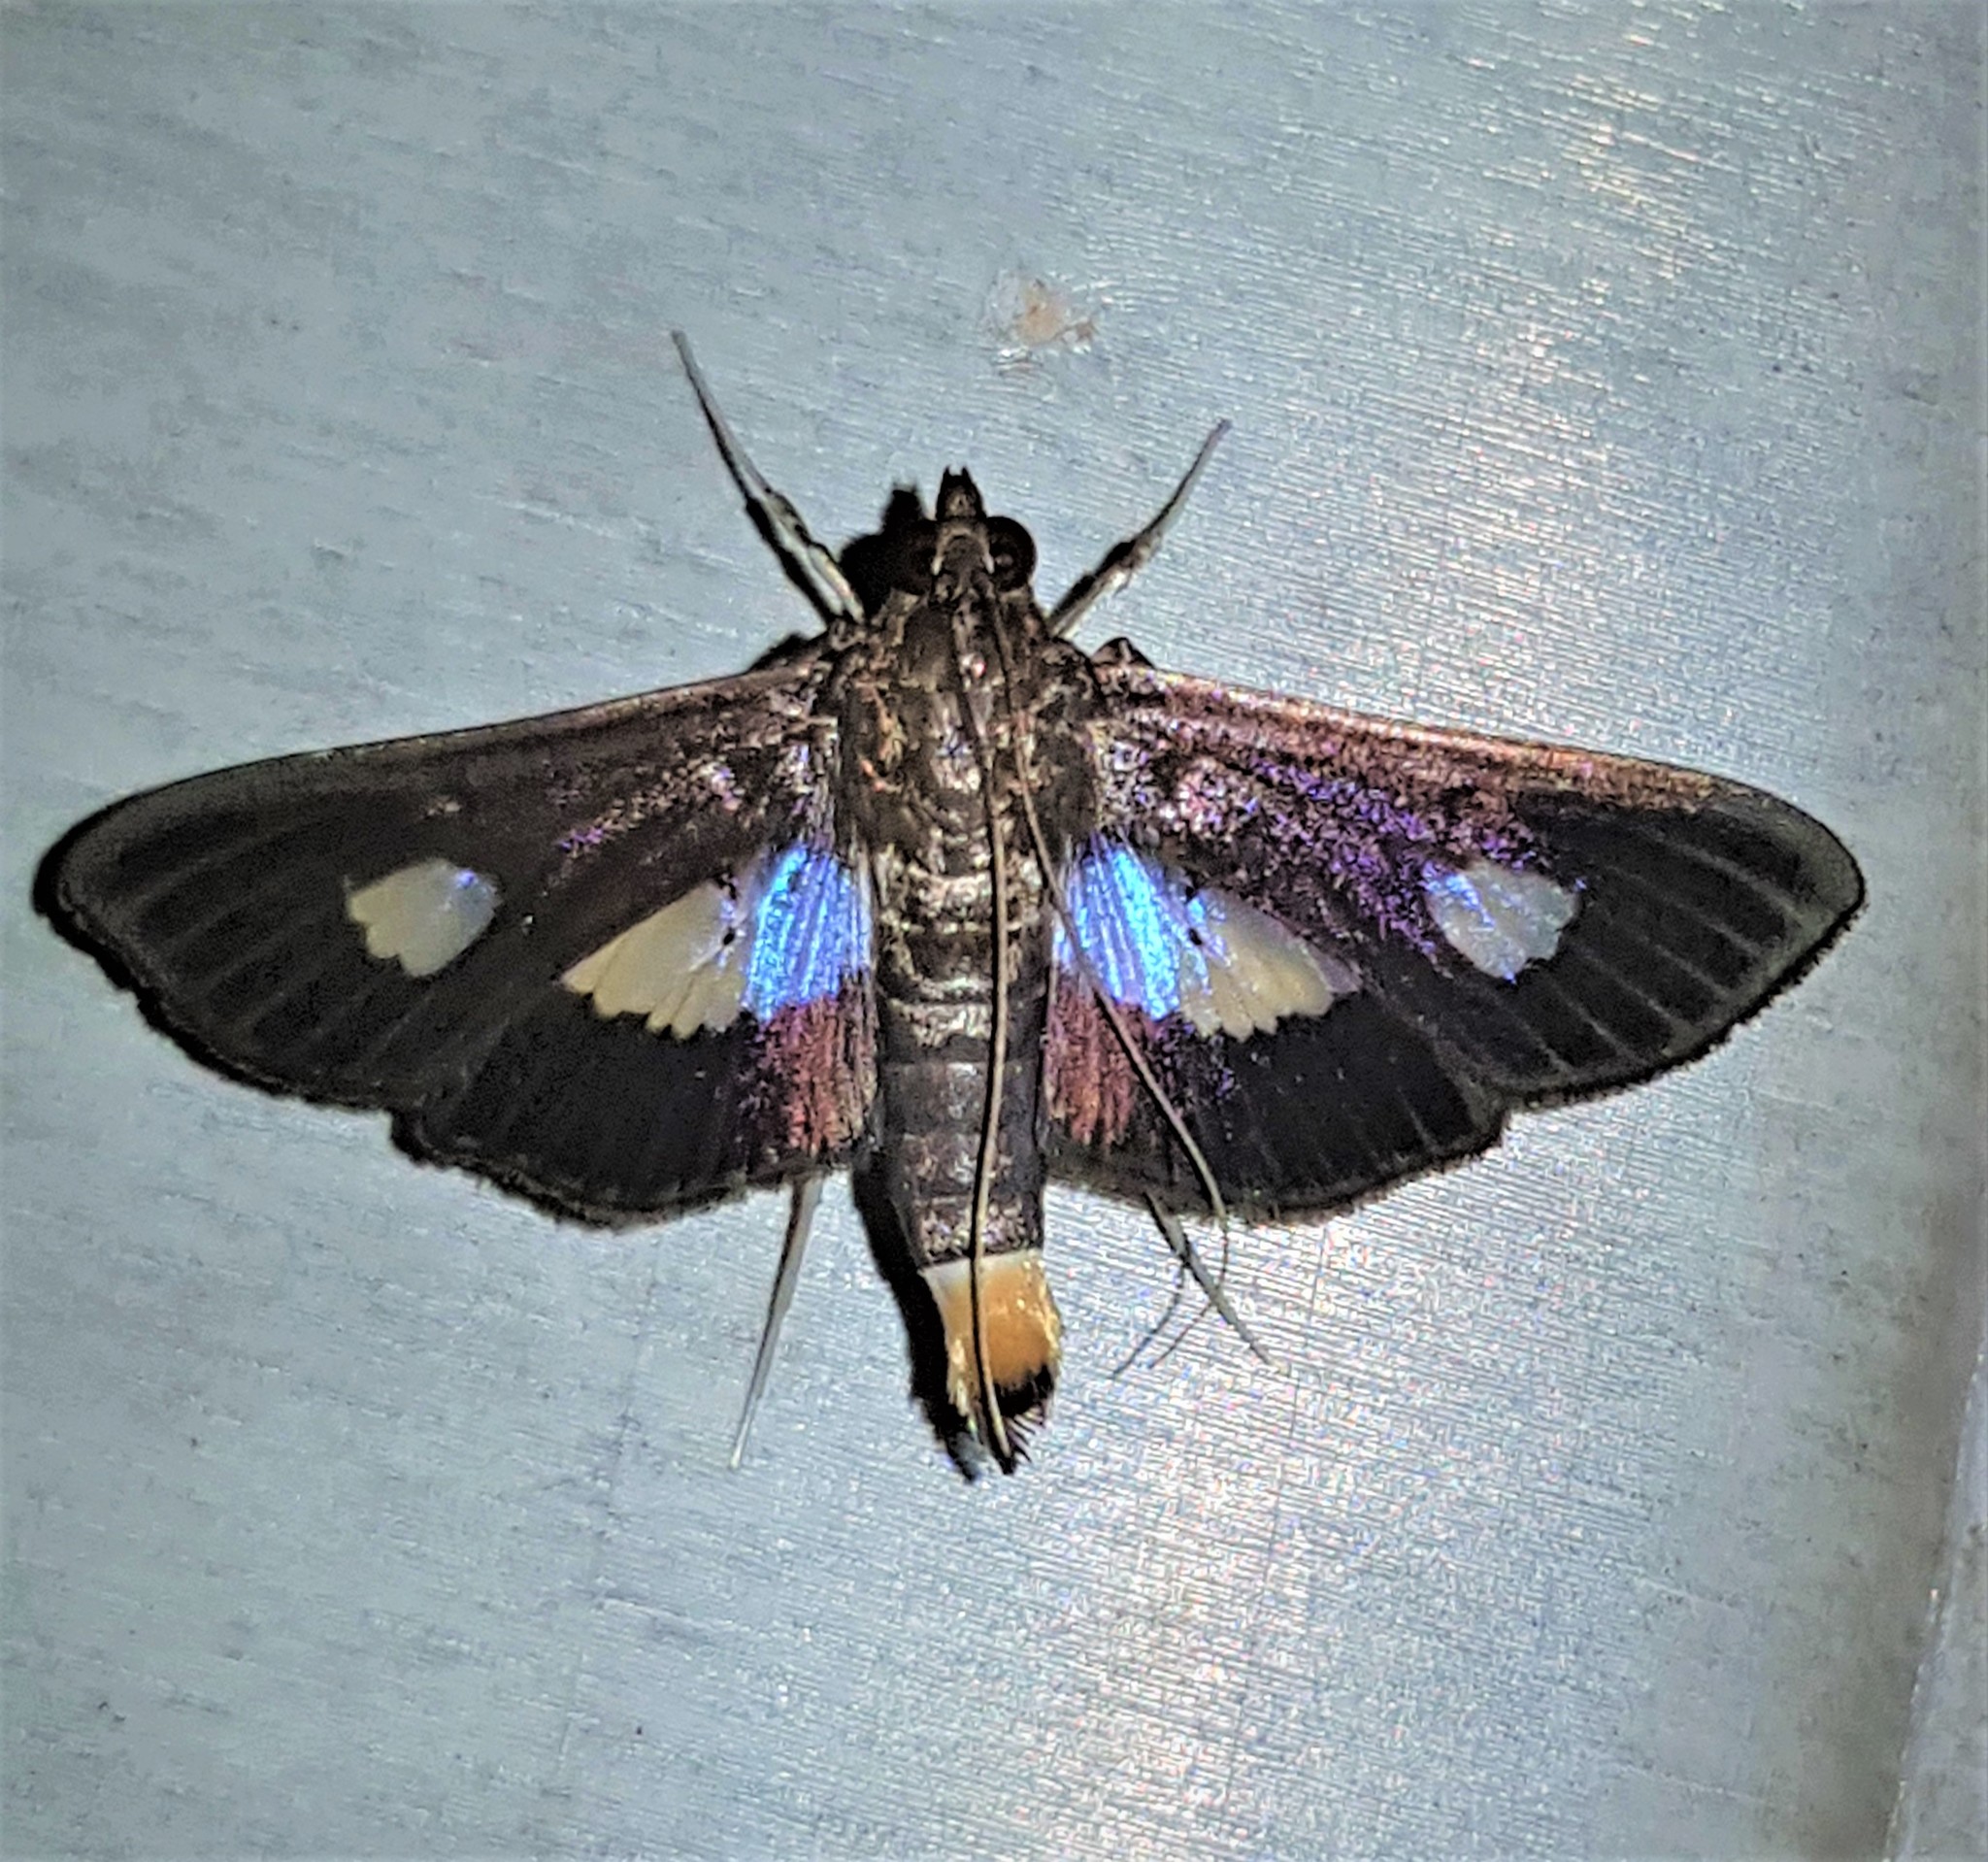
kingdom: Animalia
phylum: Arthropoda
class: Insecta
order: Lepidoptera
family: Crambidae
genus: Diaphania
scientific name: Diaphania exclusalis
